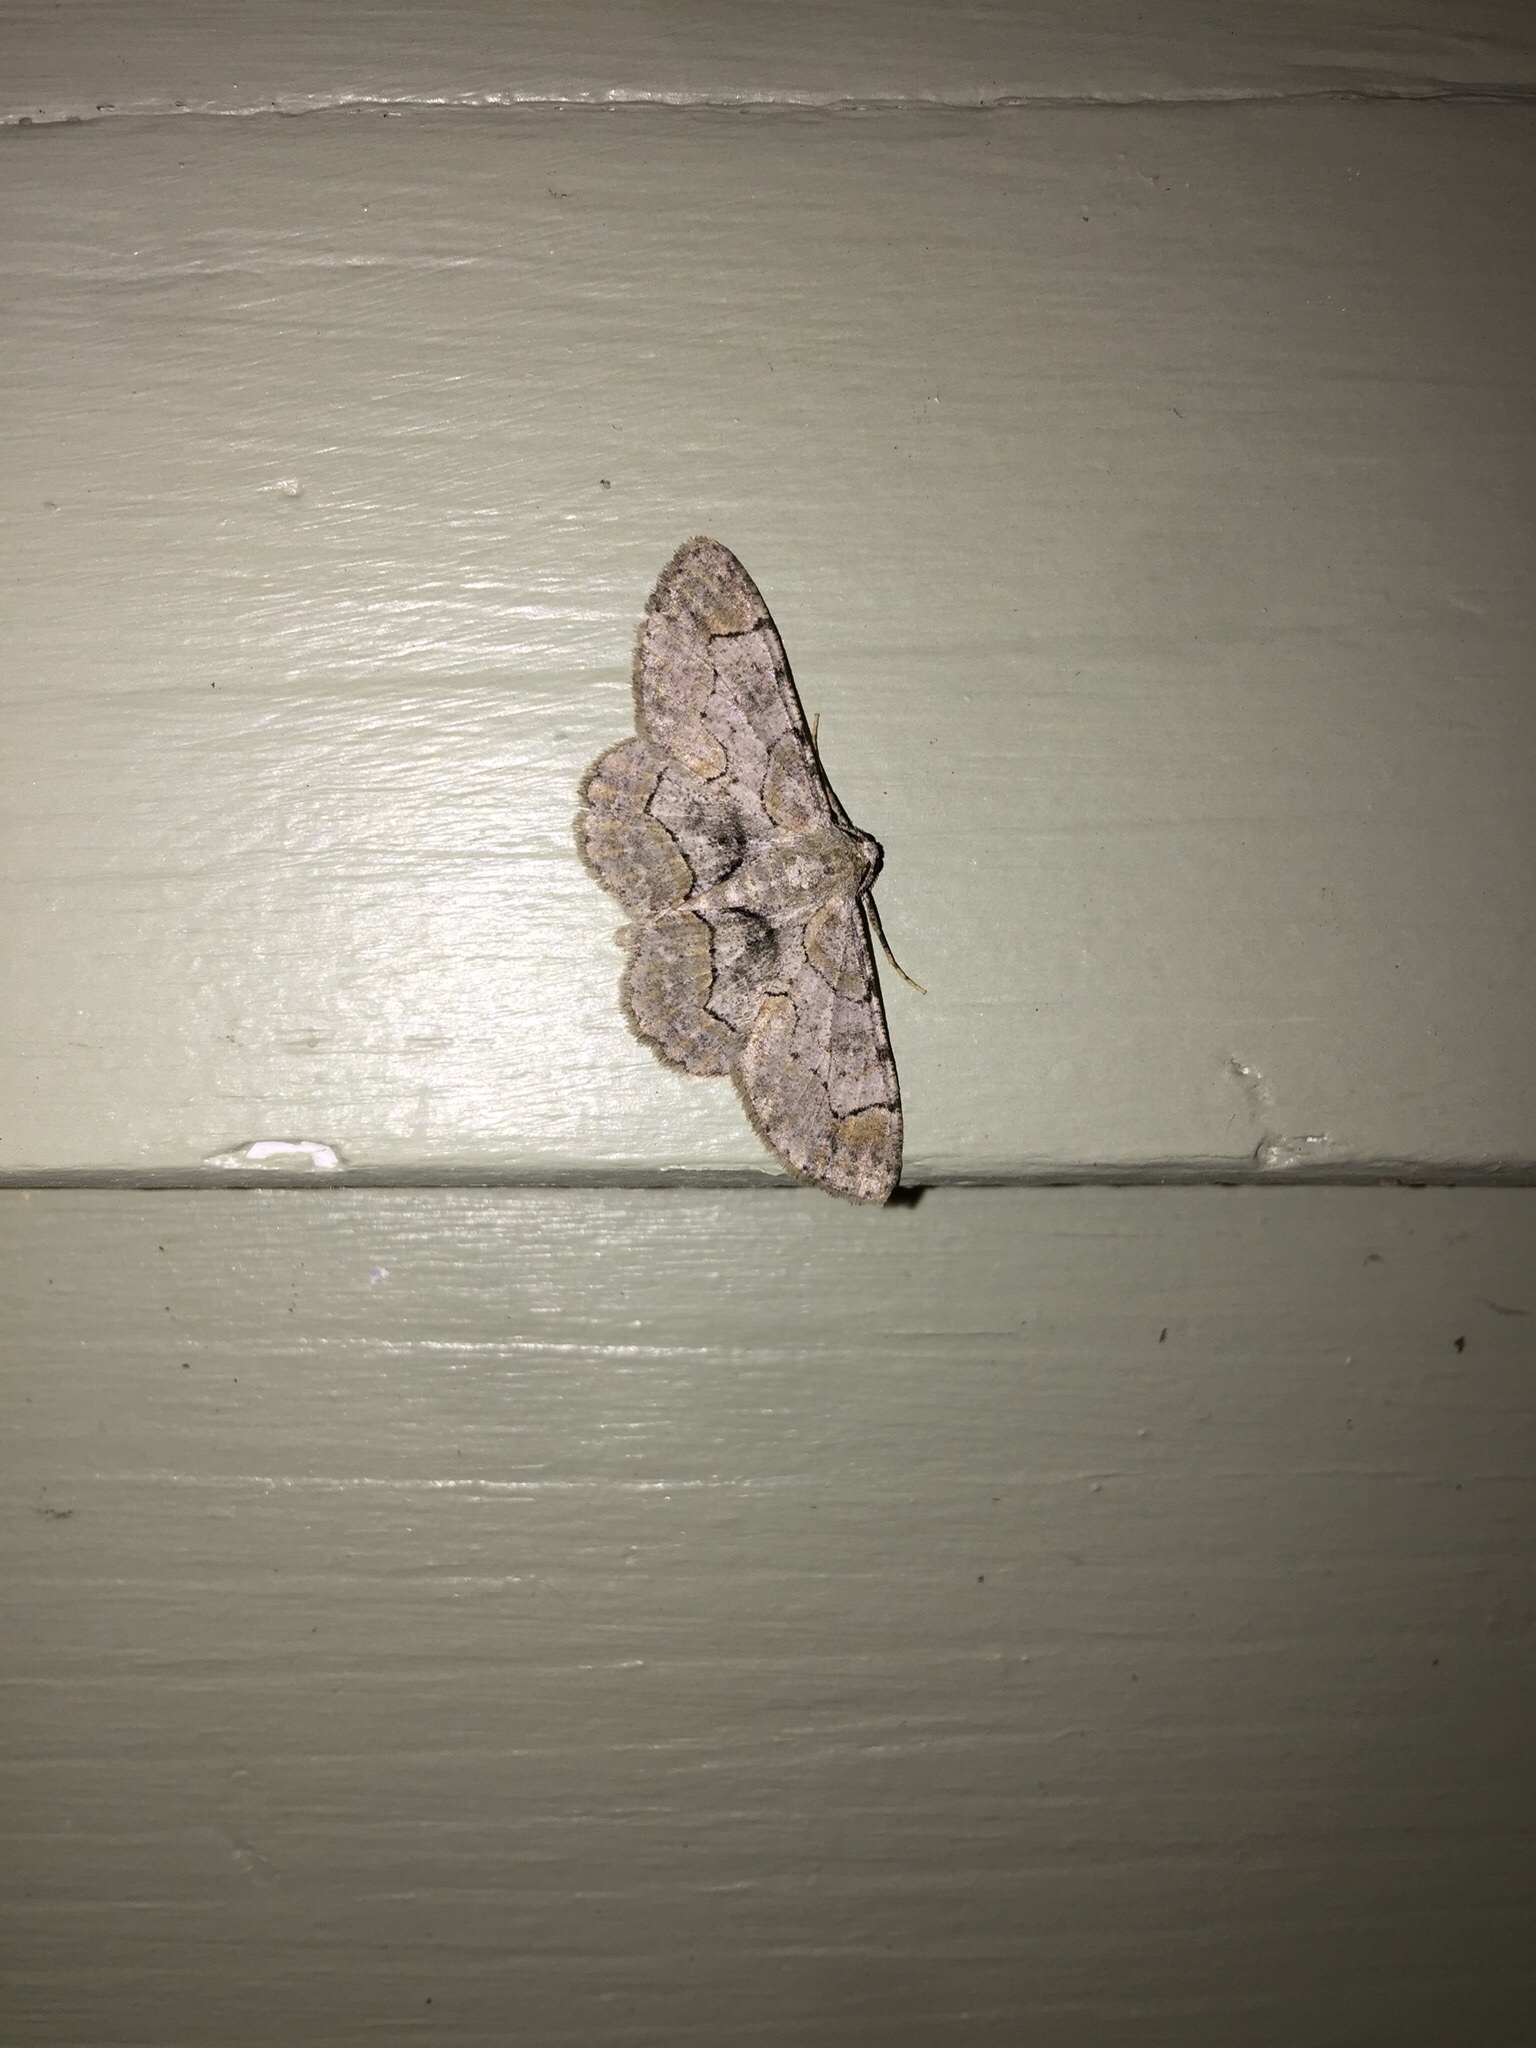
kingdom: Animalia
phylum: Arthropoda
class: Insecta
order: Lepidoptera
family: Geometridae
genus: Iridopsis
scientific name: Iridopsis larvaria
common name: Bent-line gray
